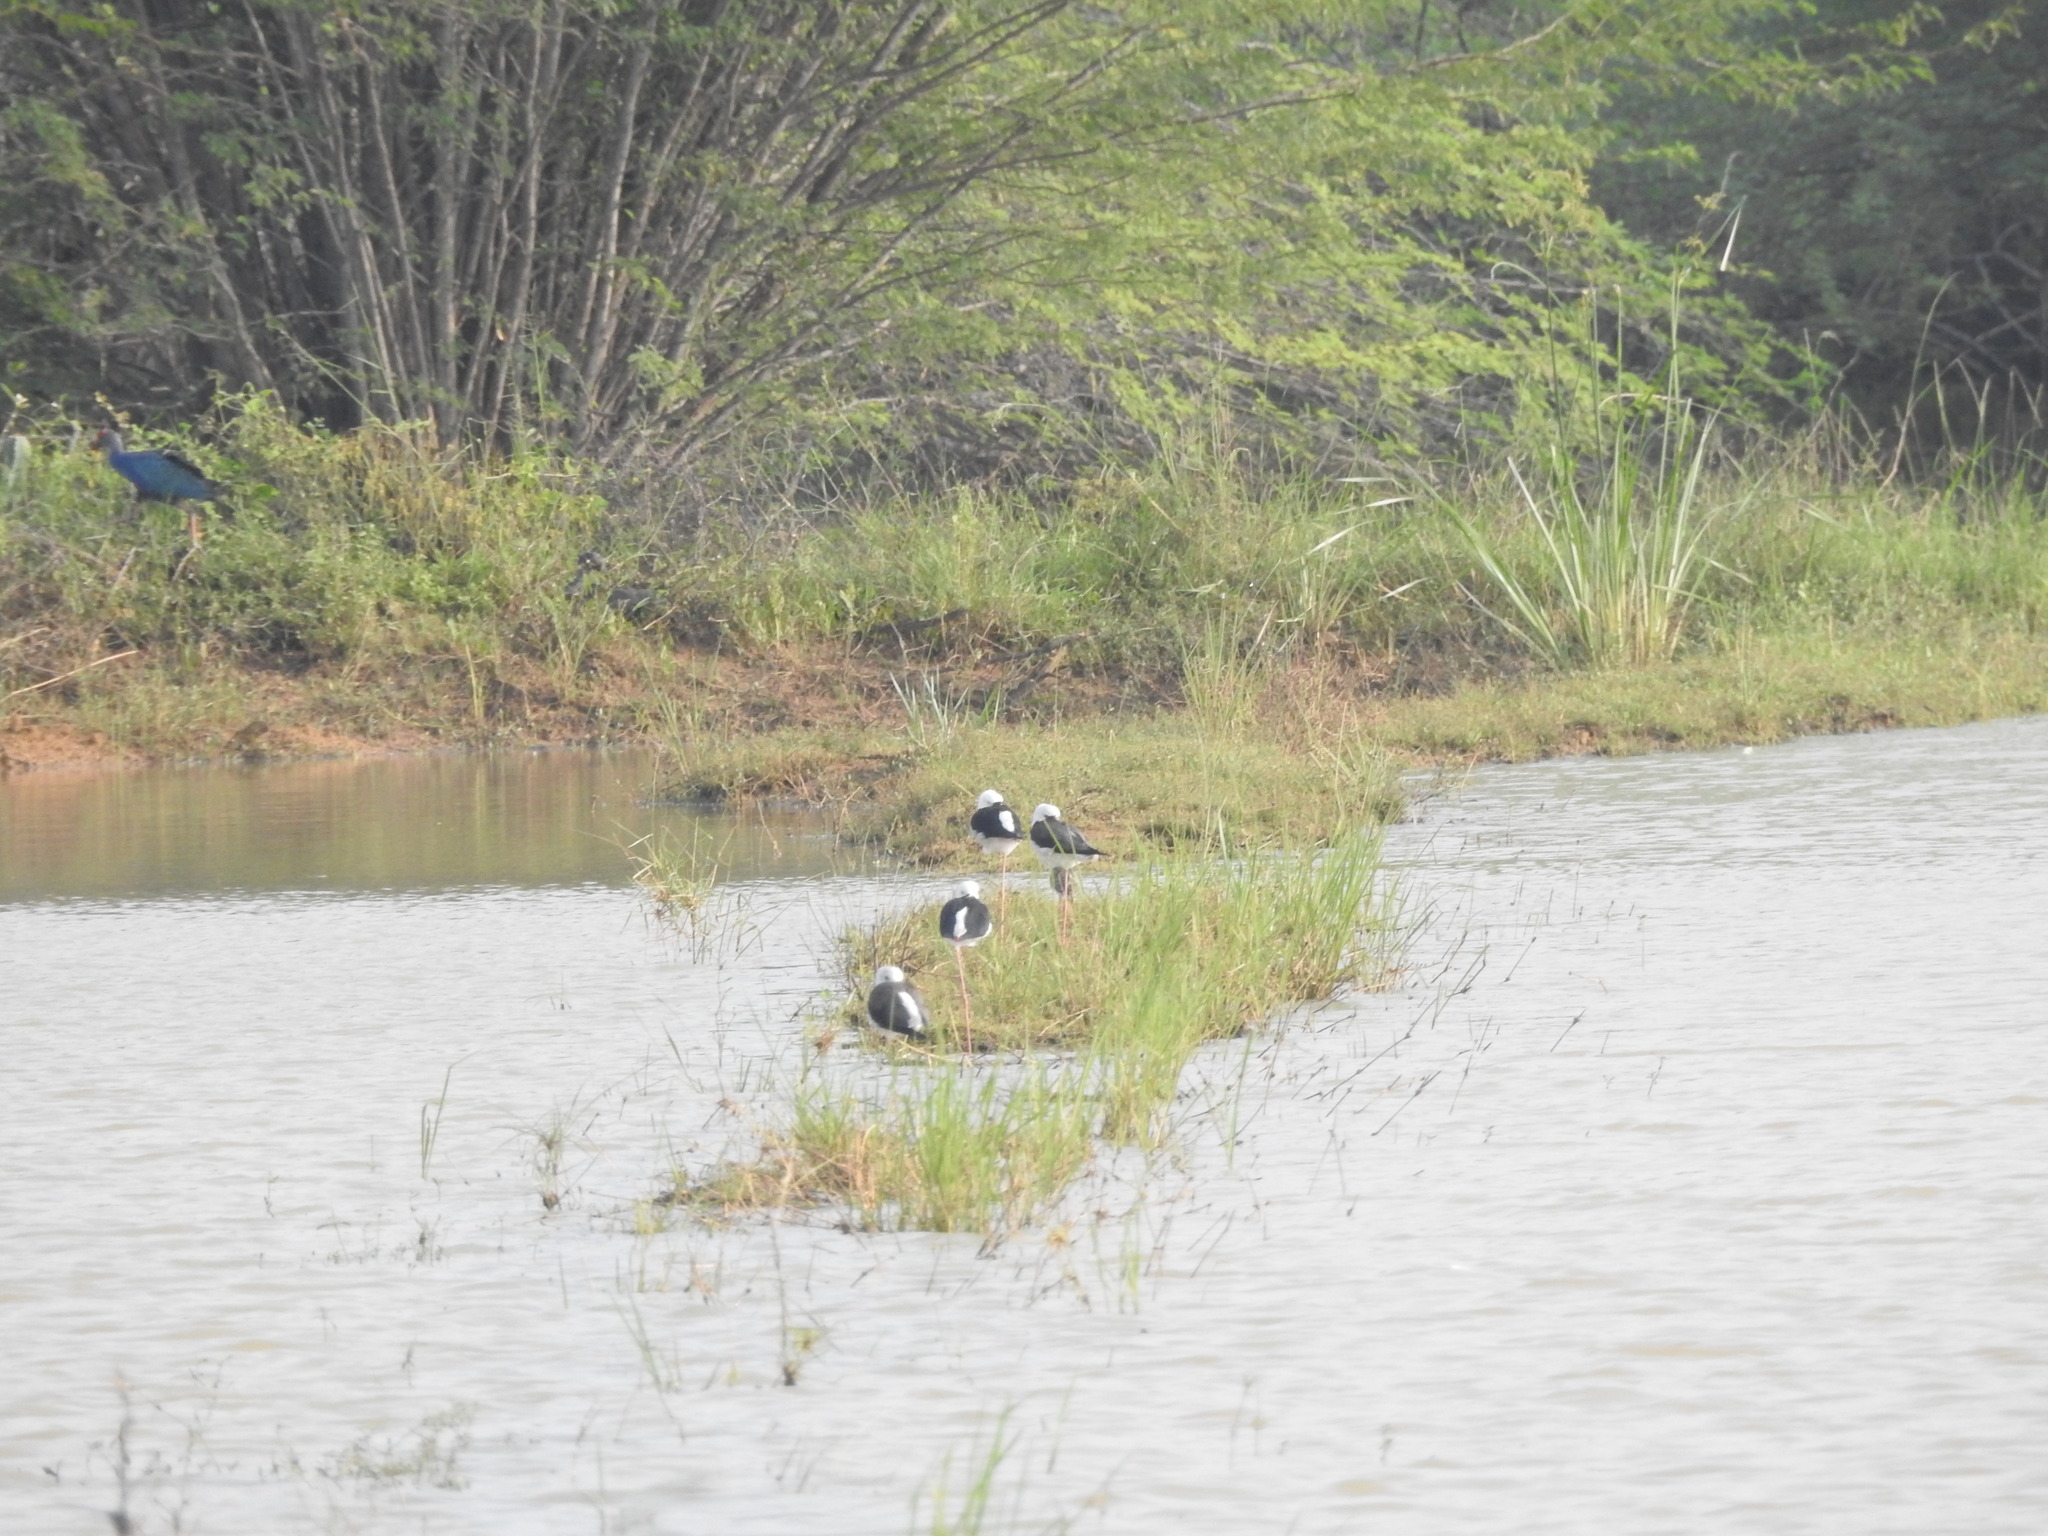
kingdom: Animalia
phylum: Chordata
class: Aves
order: Charadriiformes
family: Recurvirostridae
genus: Himantopus
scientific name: Himantopus himantopus
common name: Black-winged stilt
